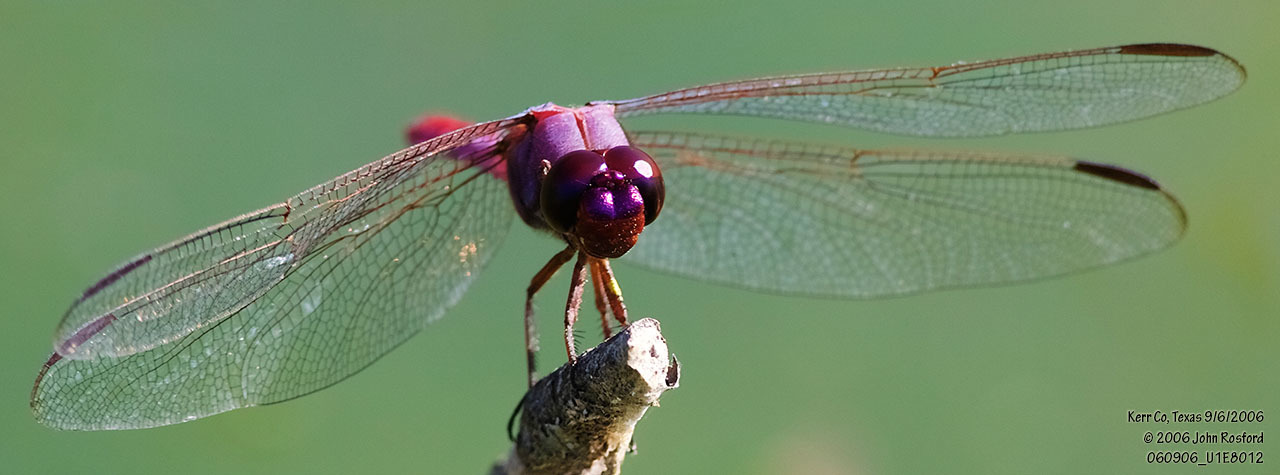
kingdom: Animalia
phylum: Arthropoda
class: Insecta
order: Odonata
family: Libellulidae
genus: Orthemis
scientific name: Orthemis ferruginea
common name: Roseate skimmer
